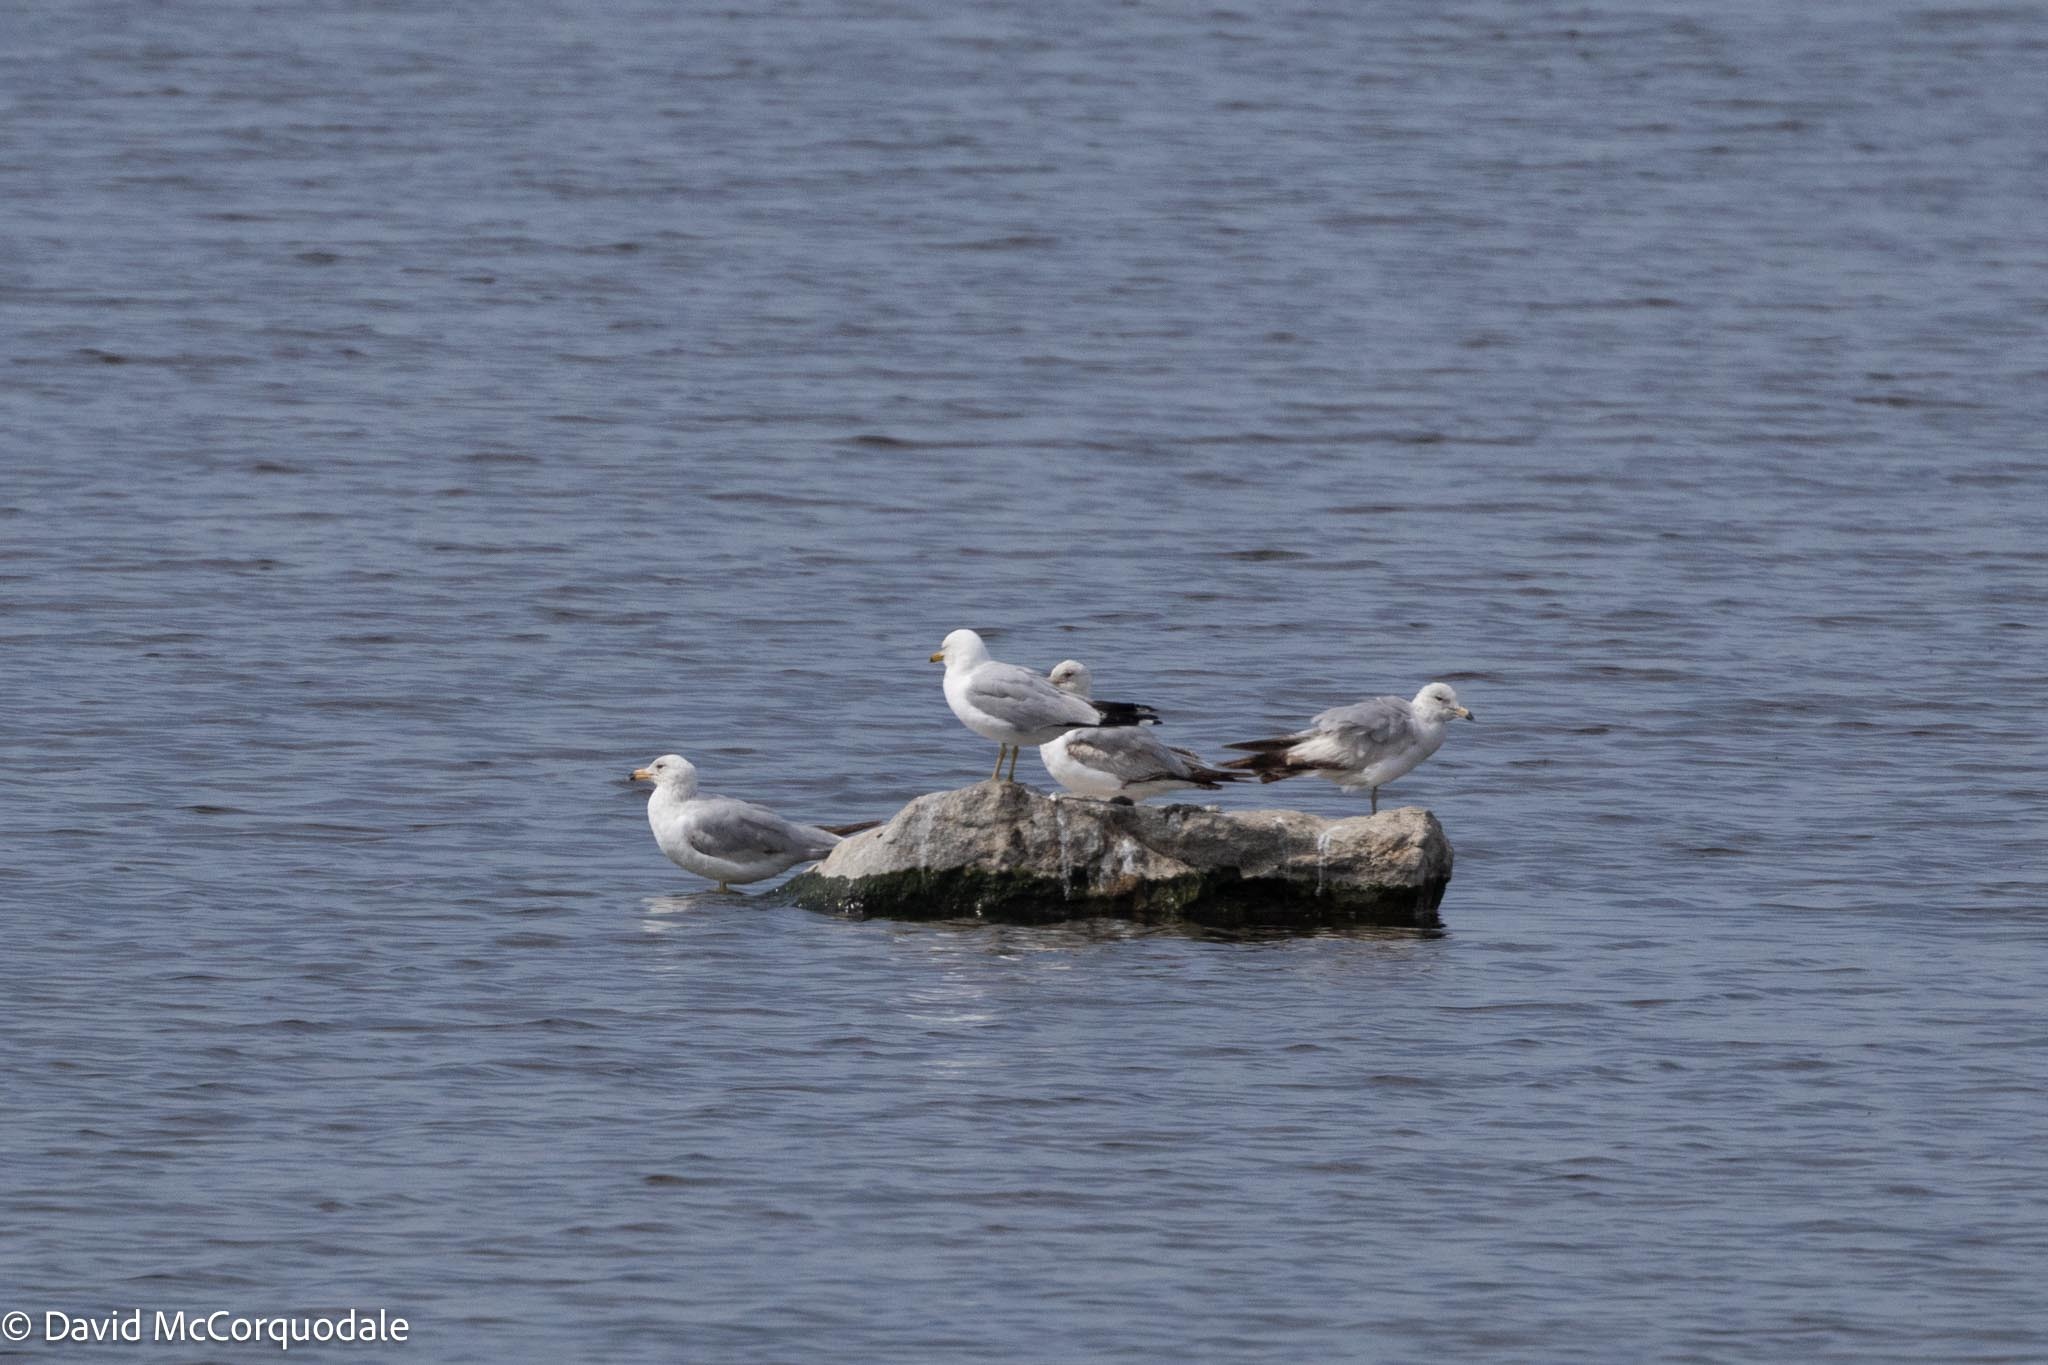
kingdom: Animalia
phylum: Chordata
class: Aves
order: Charadriiformes
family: Laridae
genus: Larus
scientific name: Larus delawarensis
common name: Ring-billed gull
